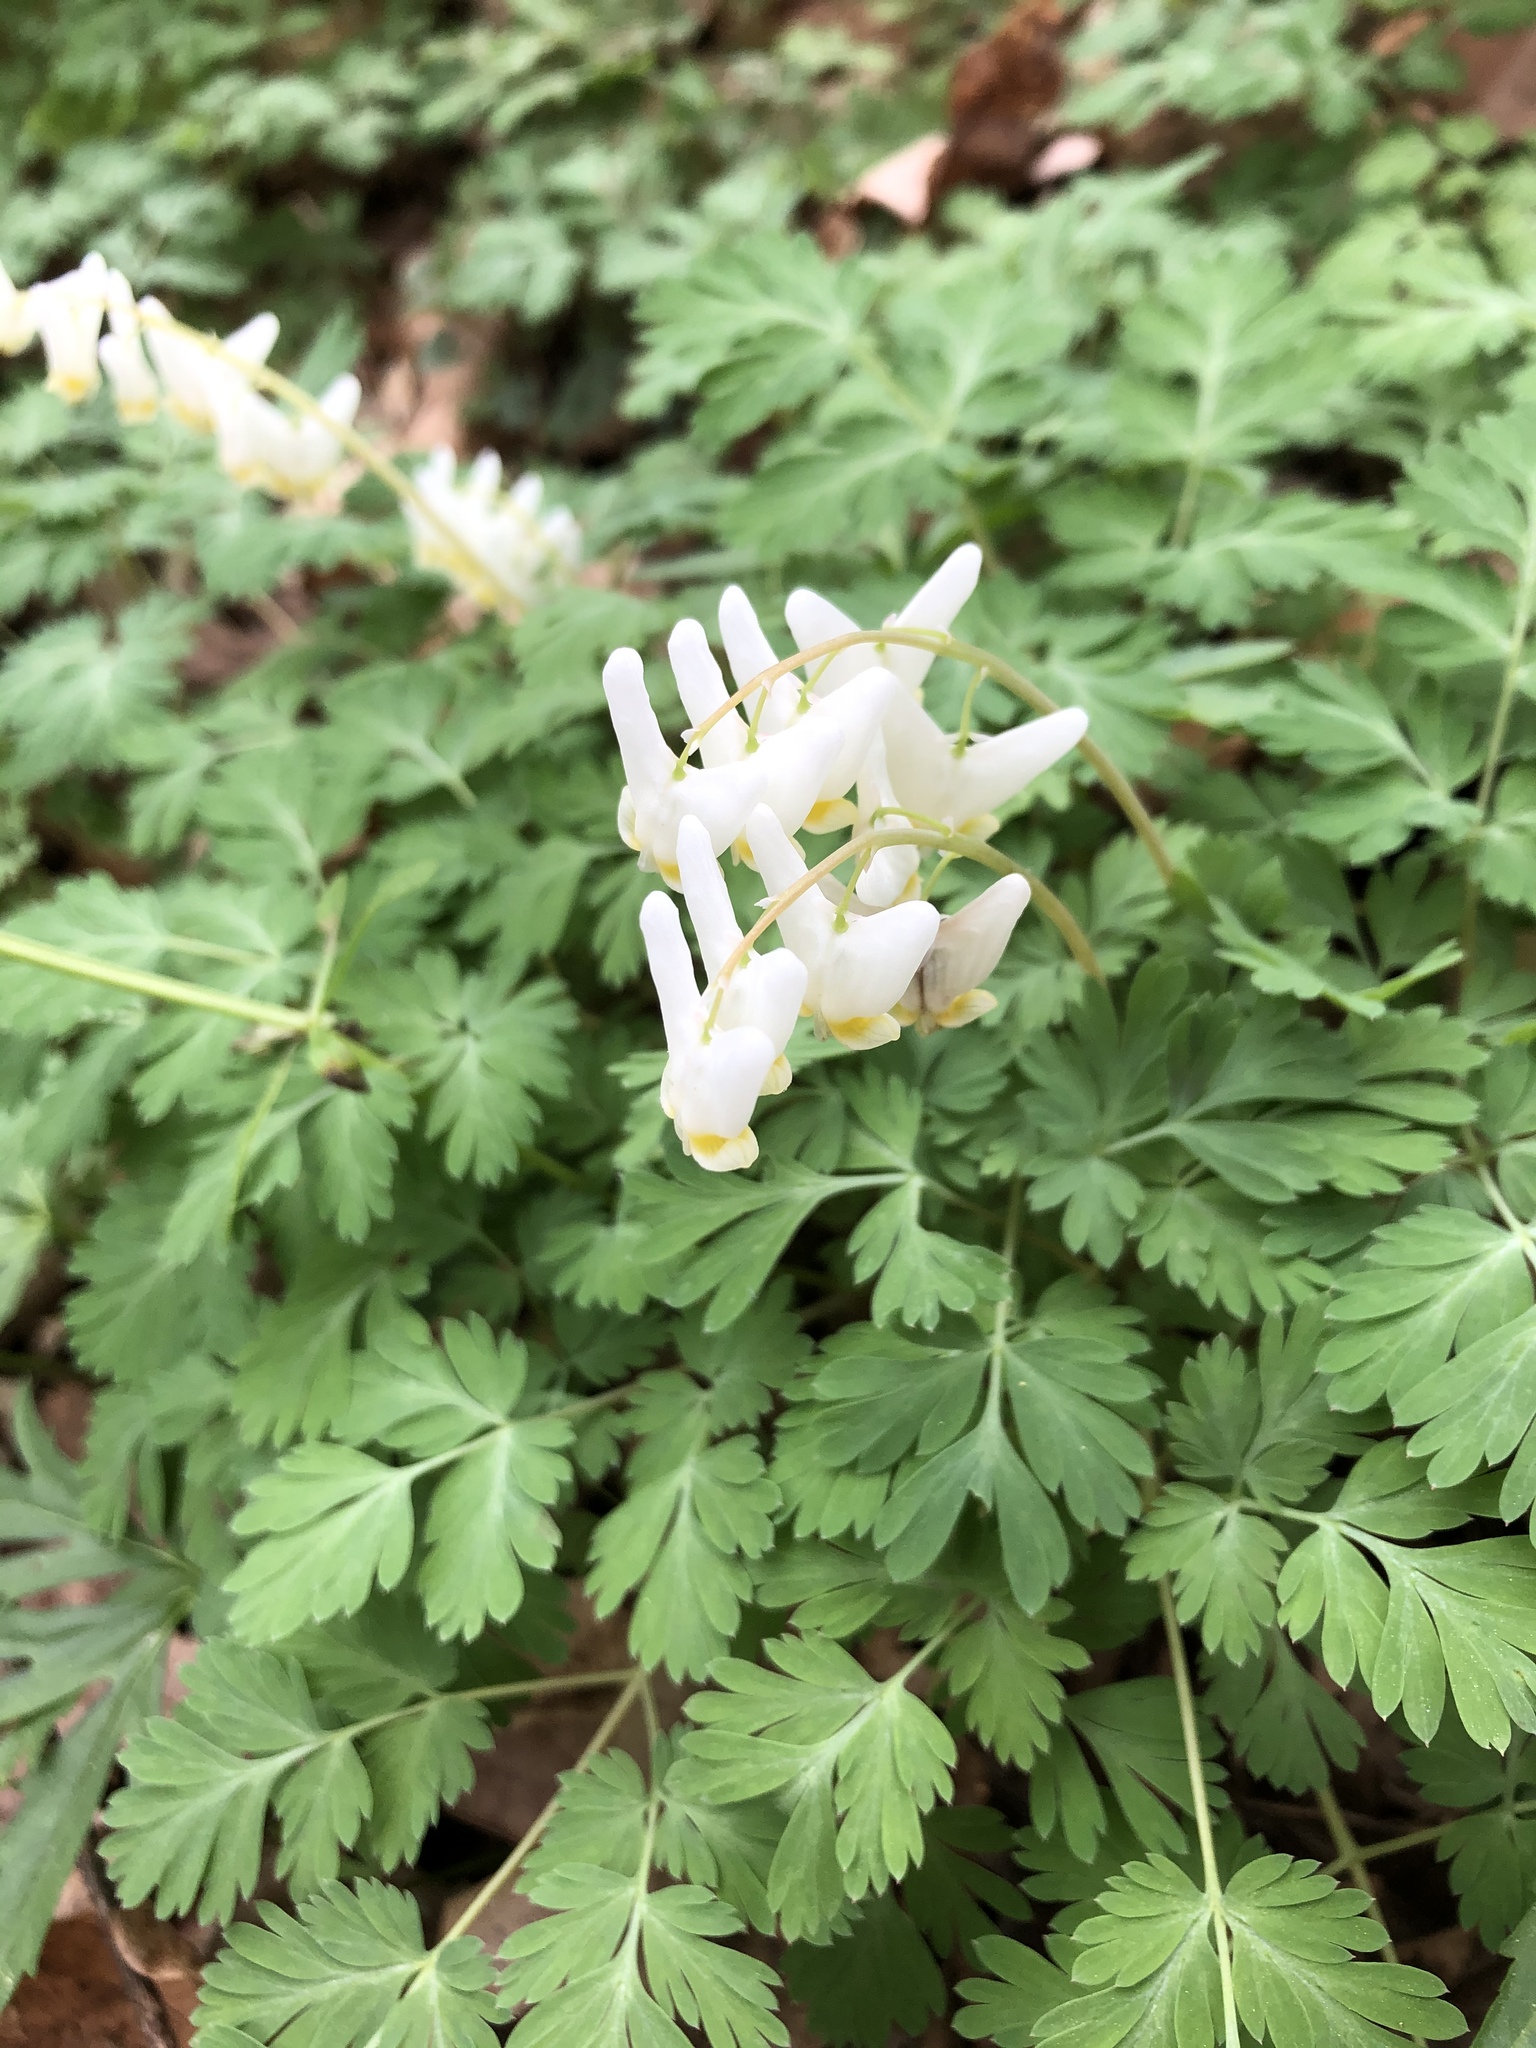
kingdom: Plantae
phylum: Tracheophyta
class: Magnoliopsida
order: Ranunculales
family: Papaveraceae
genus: Dicentra
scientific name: Dicentra cucullaria
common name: Dutchman's breeches
